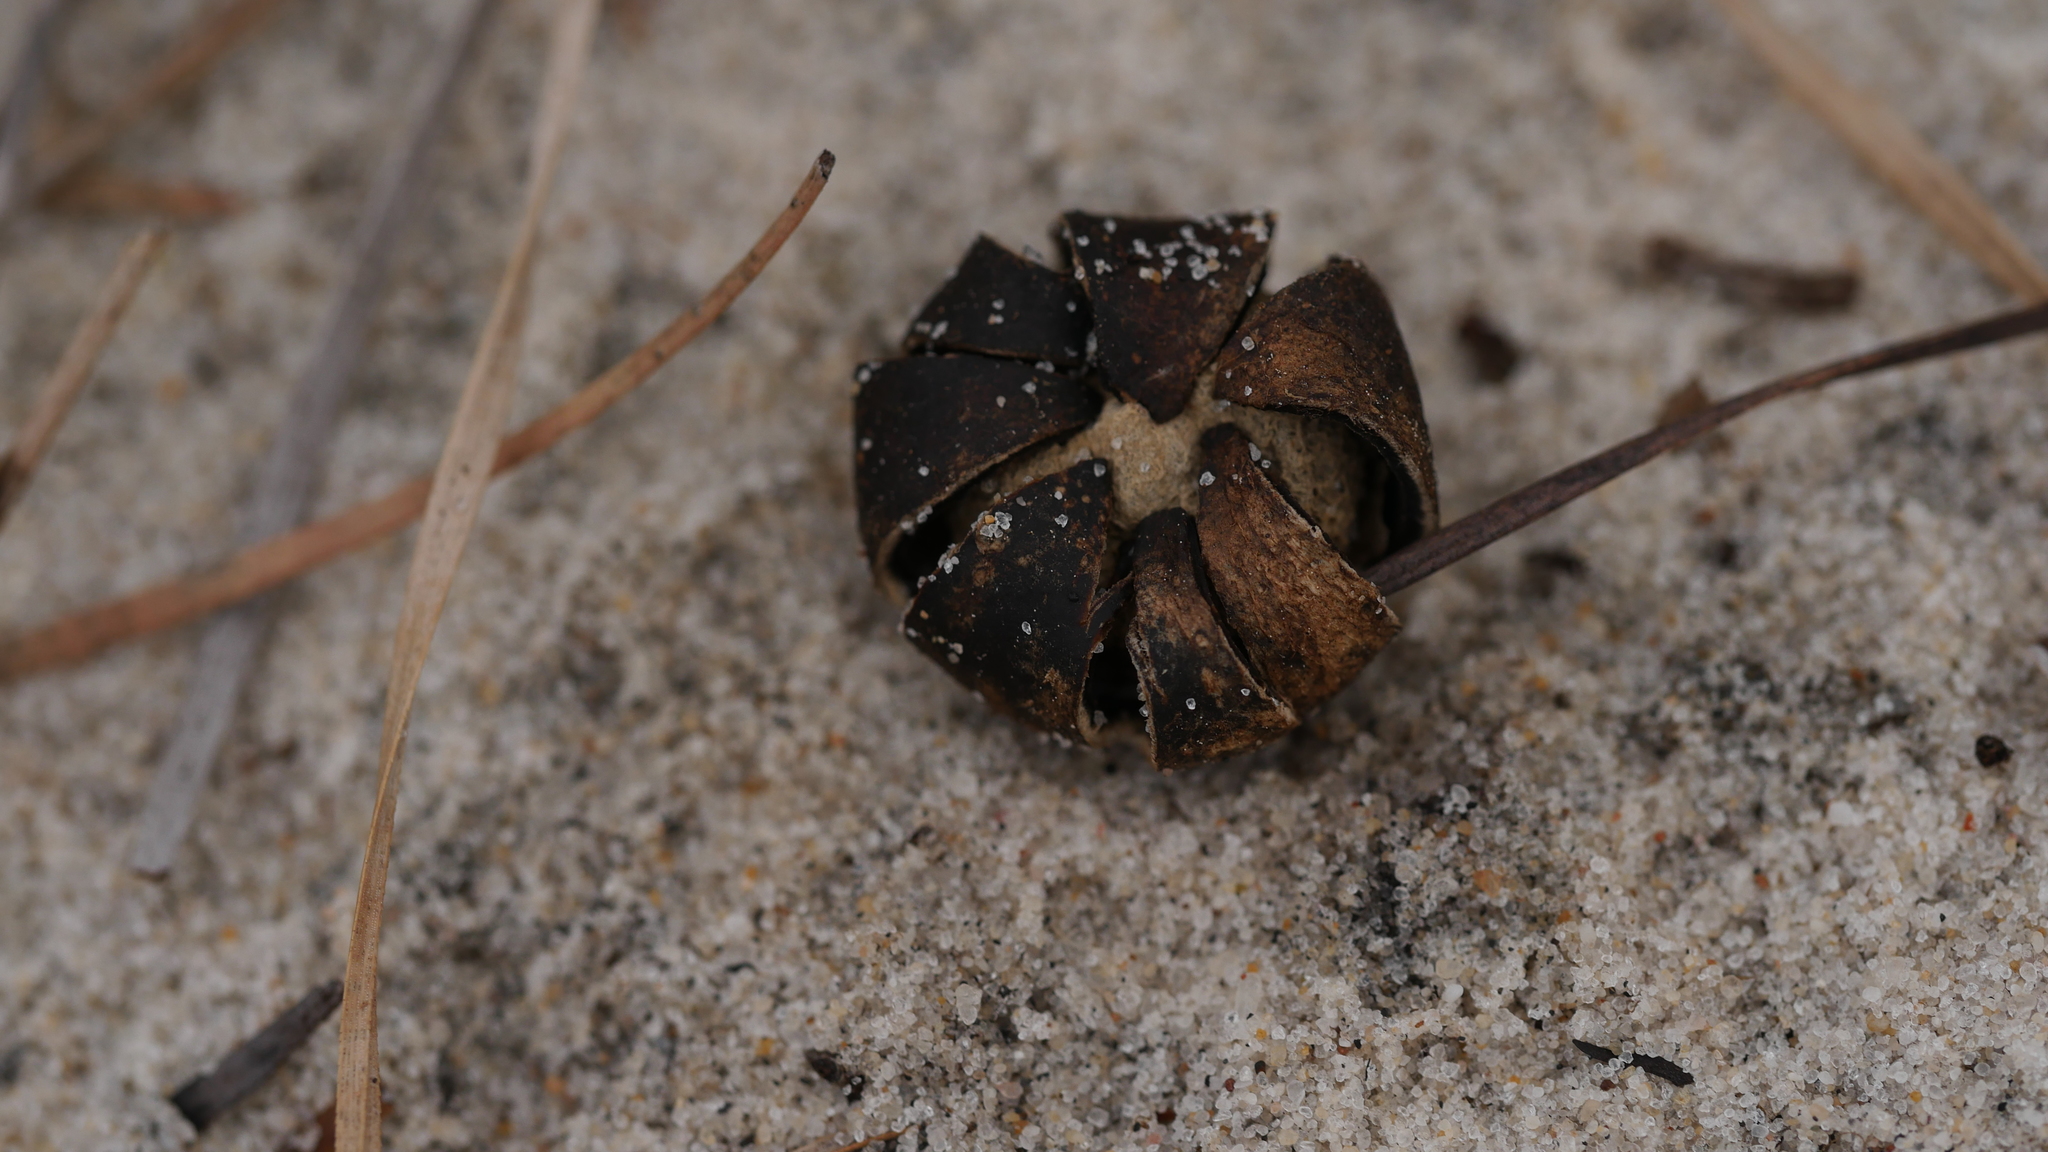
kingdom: Fungi
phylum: Basidiomycota
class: Agaricomycetes
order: Boletales
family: Diplocystidiaceae
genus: Astraeus
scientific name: Astraeus smithii
